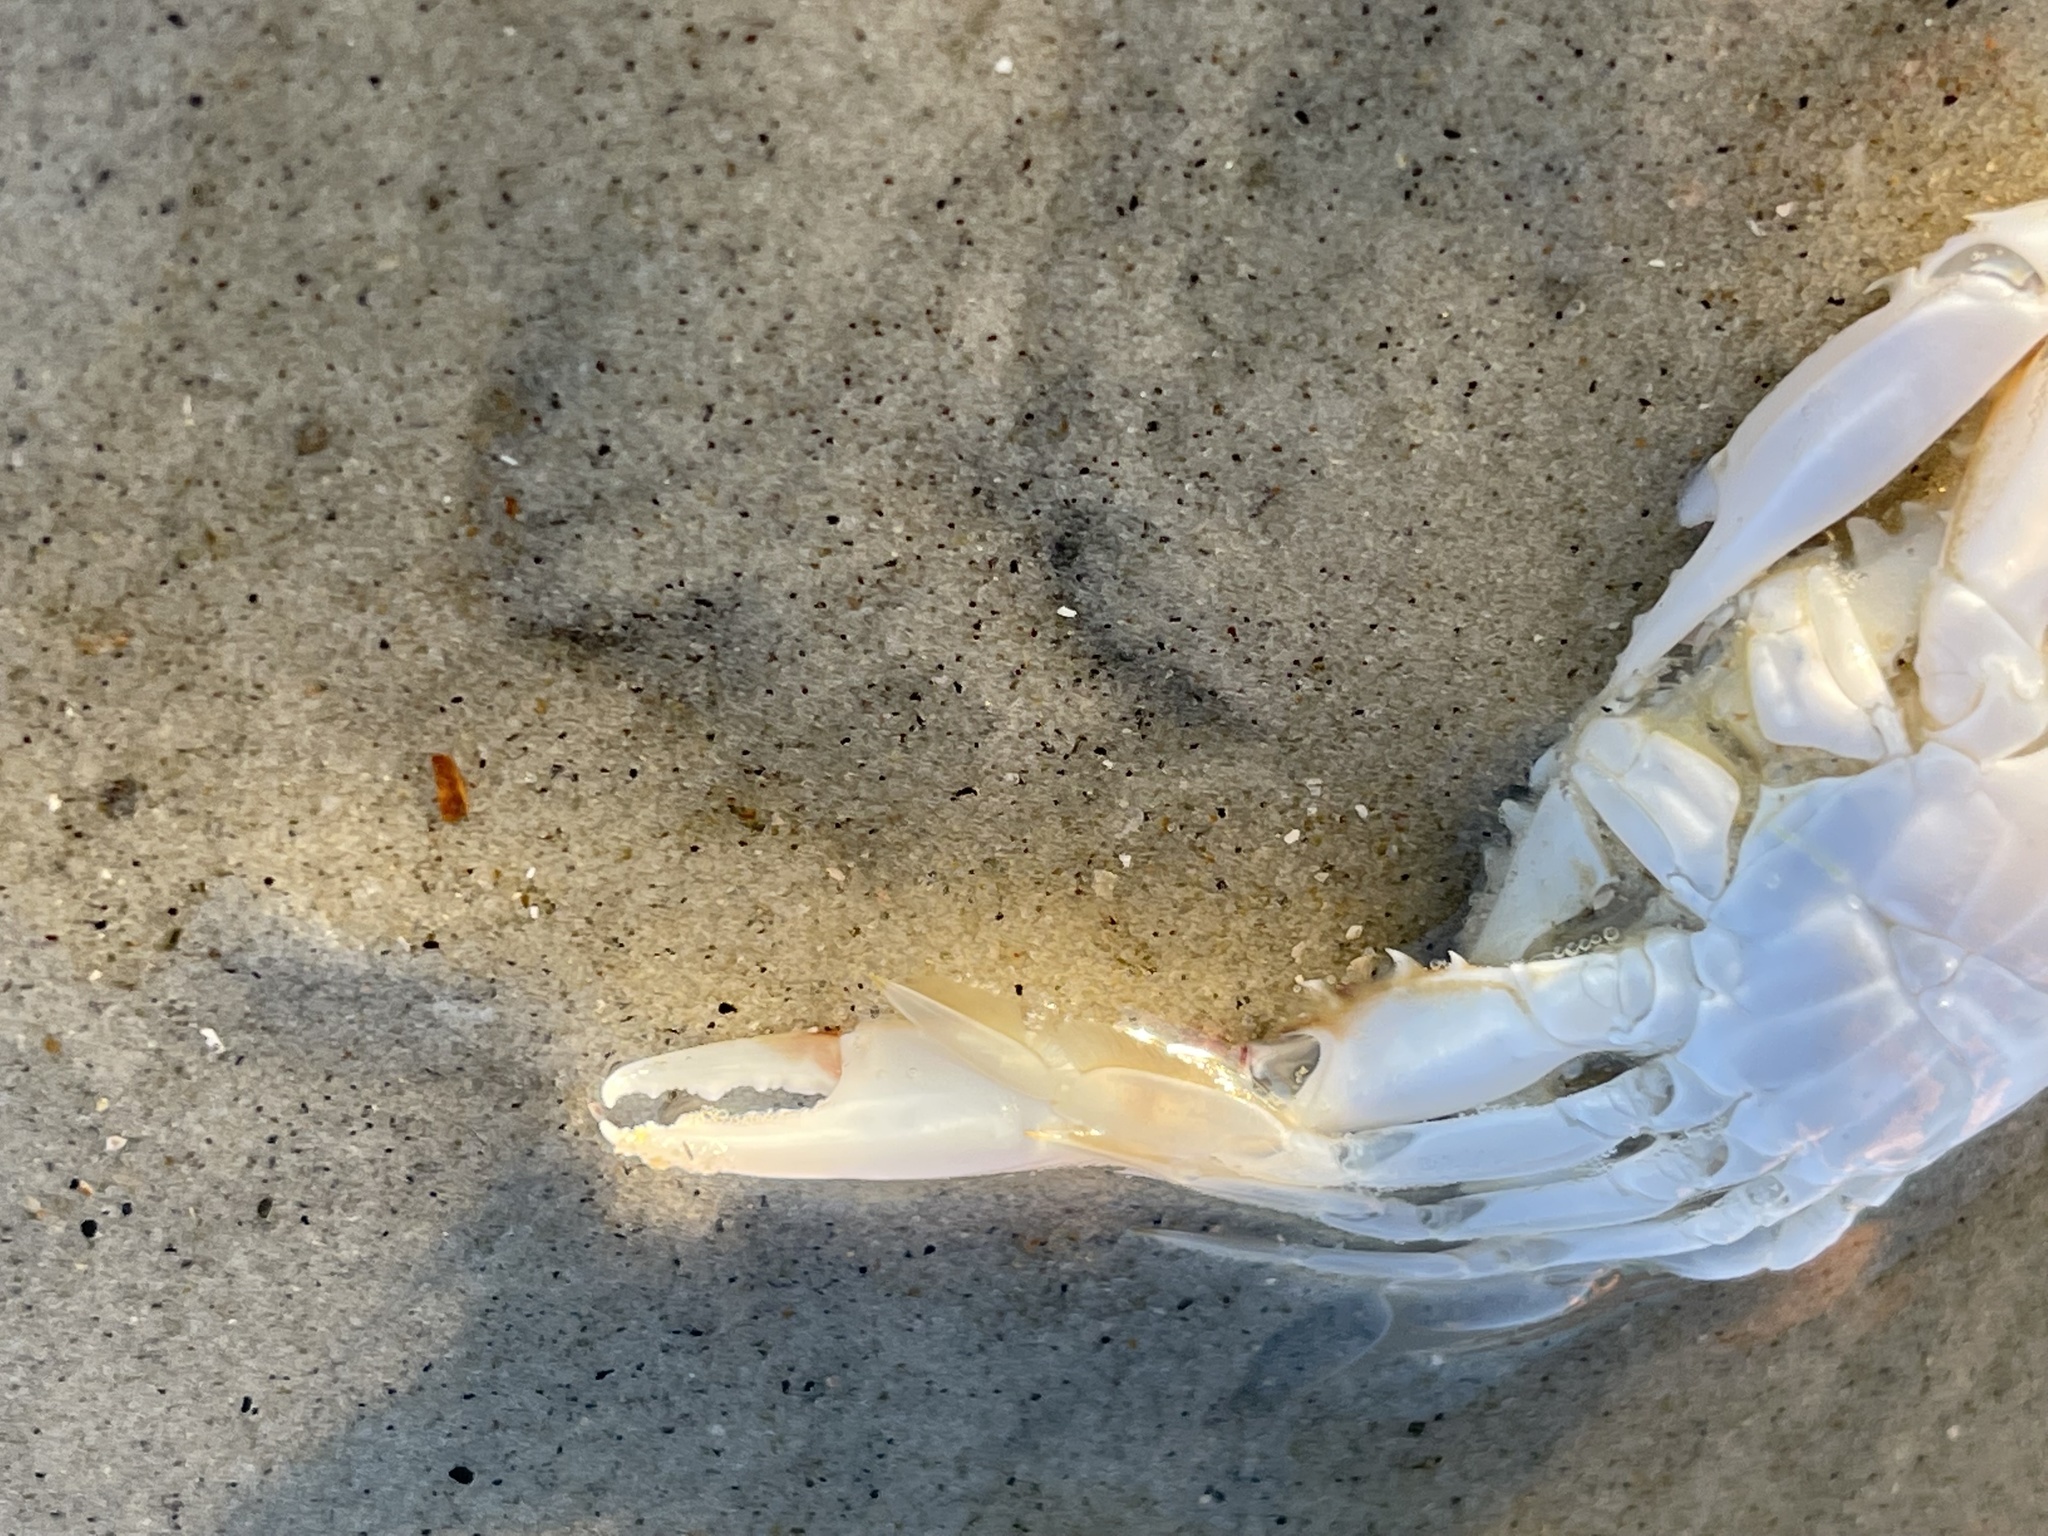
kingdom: Animalia
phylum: Arthropoda
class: Malacostraca
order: Decapoda
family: Portunidae
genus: Arenaeus
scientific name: Arenaeus cribrarius
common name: Speckled crab
